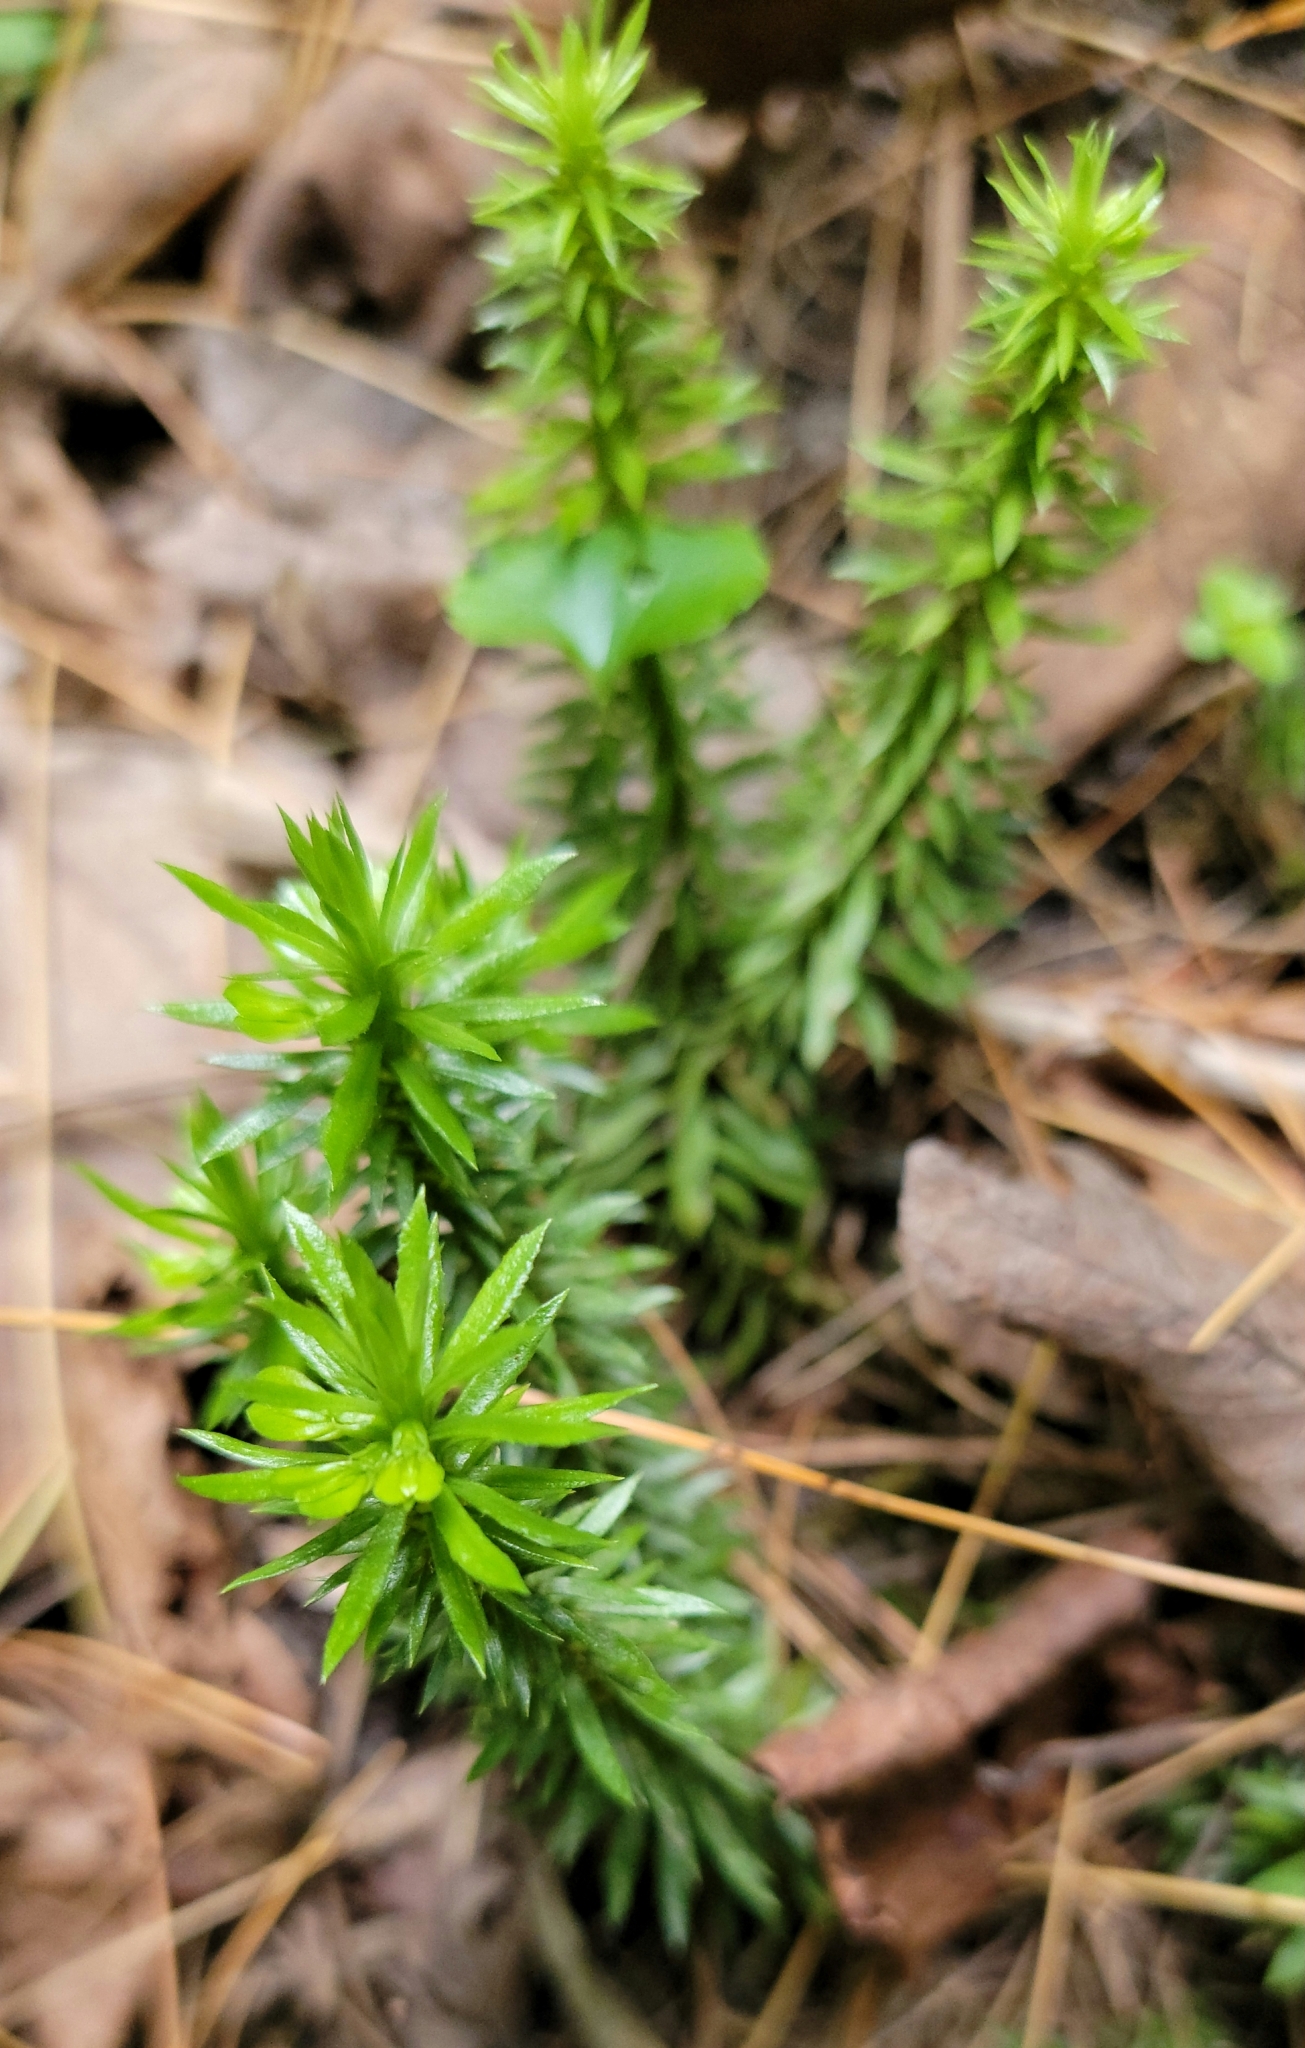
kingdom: Plantae
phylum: Tracheophyta
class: Lycopodiopsida
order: Lycopodiales
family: Lycopodiaceae
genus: Huperzia
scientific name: Huperzia lucidula
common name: Shining clubmoss
